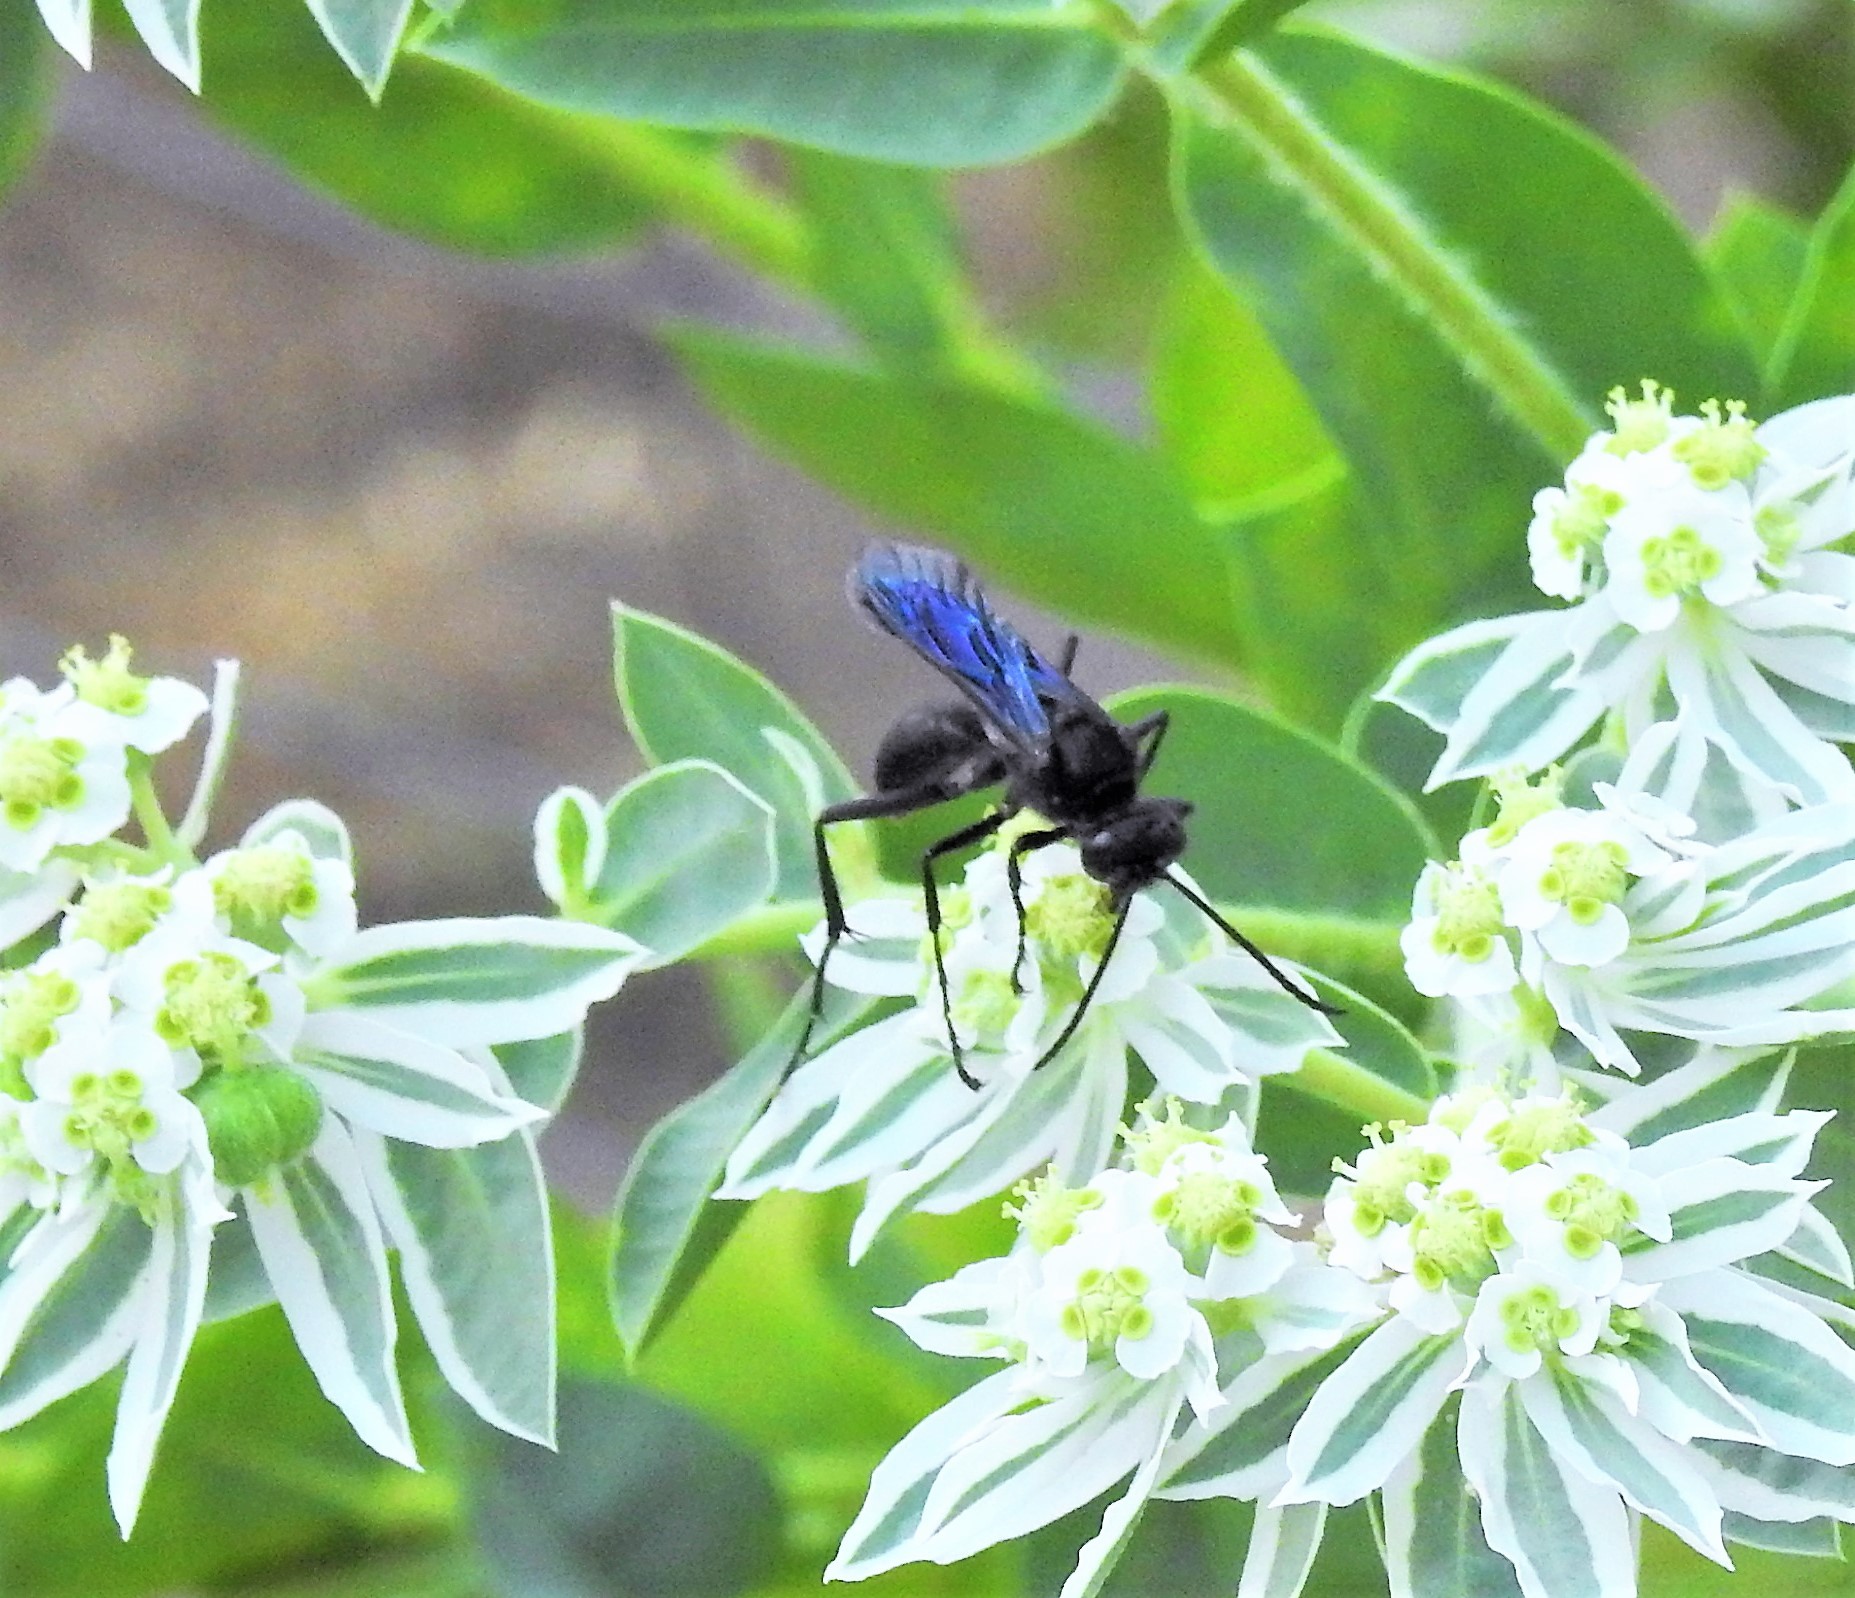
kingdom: Animalia
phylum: Arthropoda
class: Insecta
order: Hymenoptera
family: Sphecidae
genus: Sphex
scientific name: Sphex pensylvanicus
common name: Great black digger wasp
